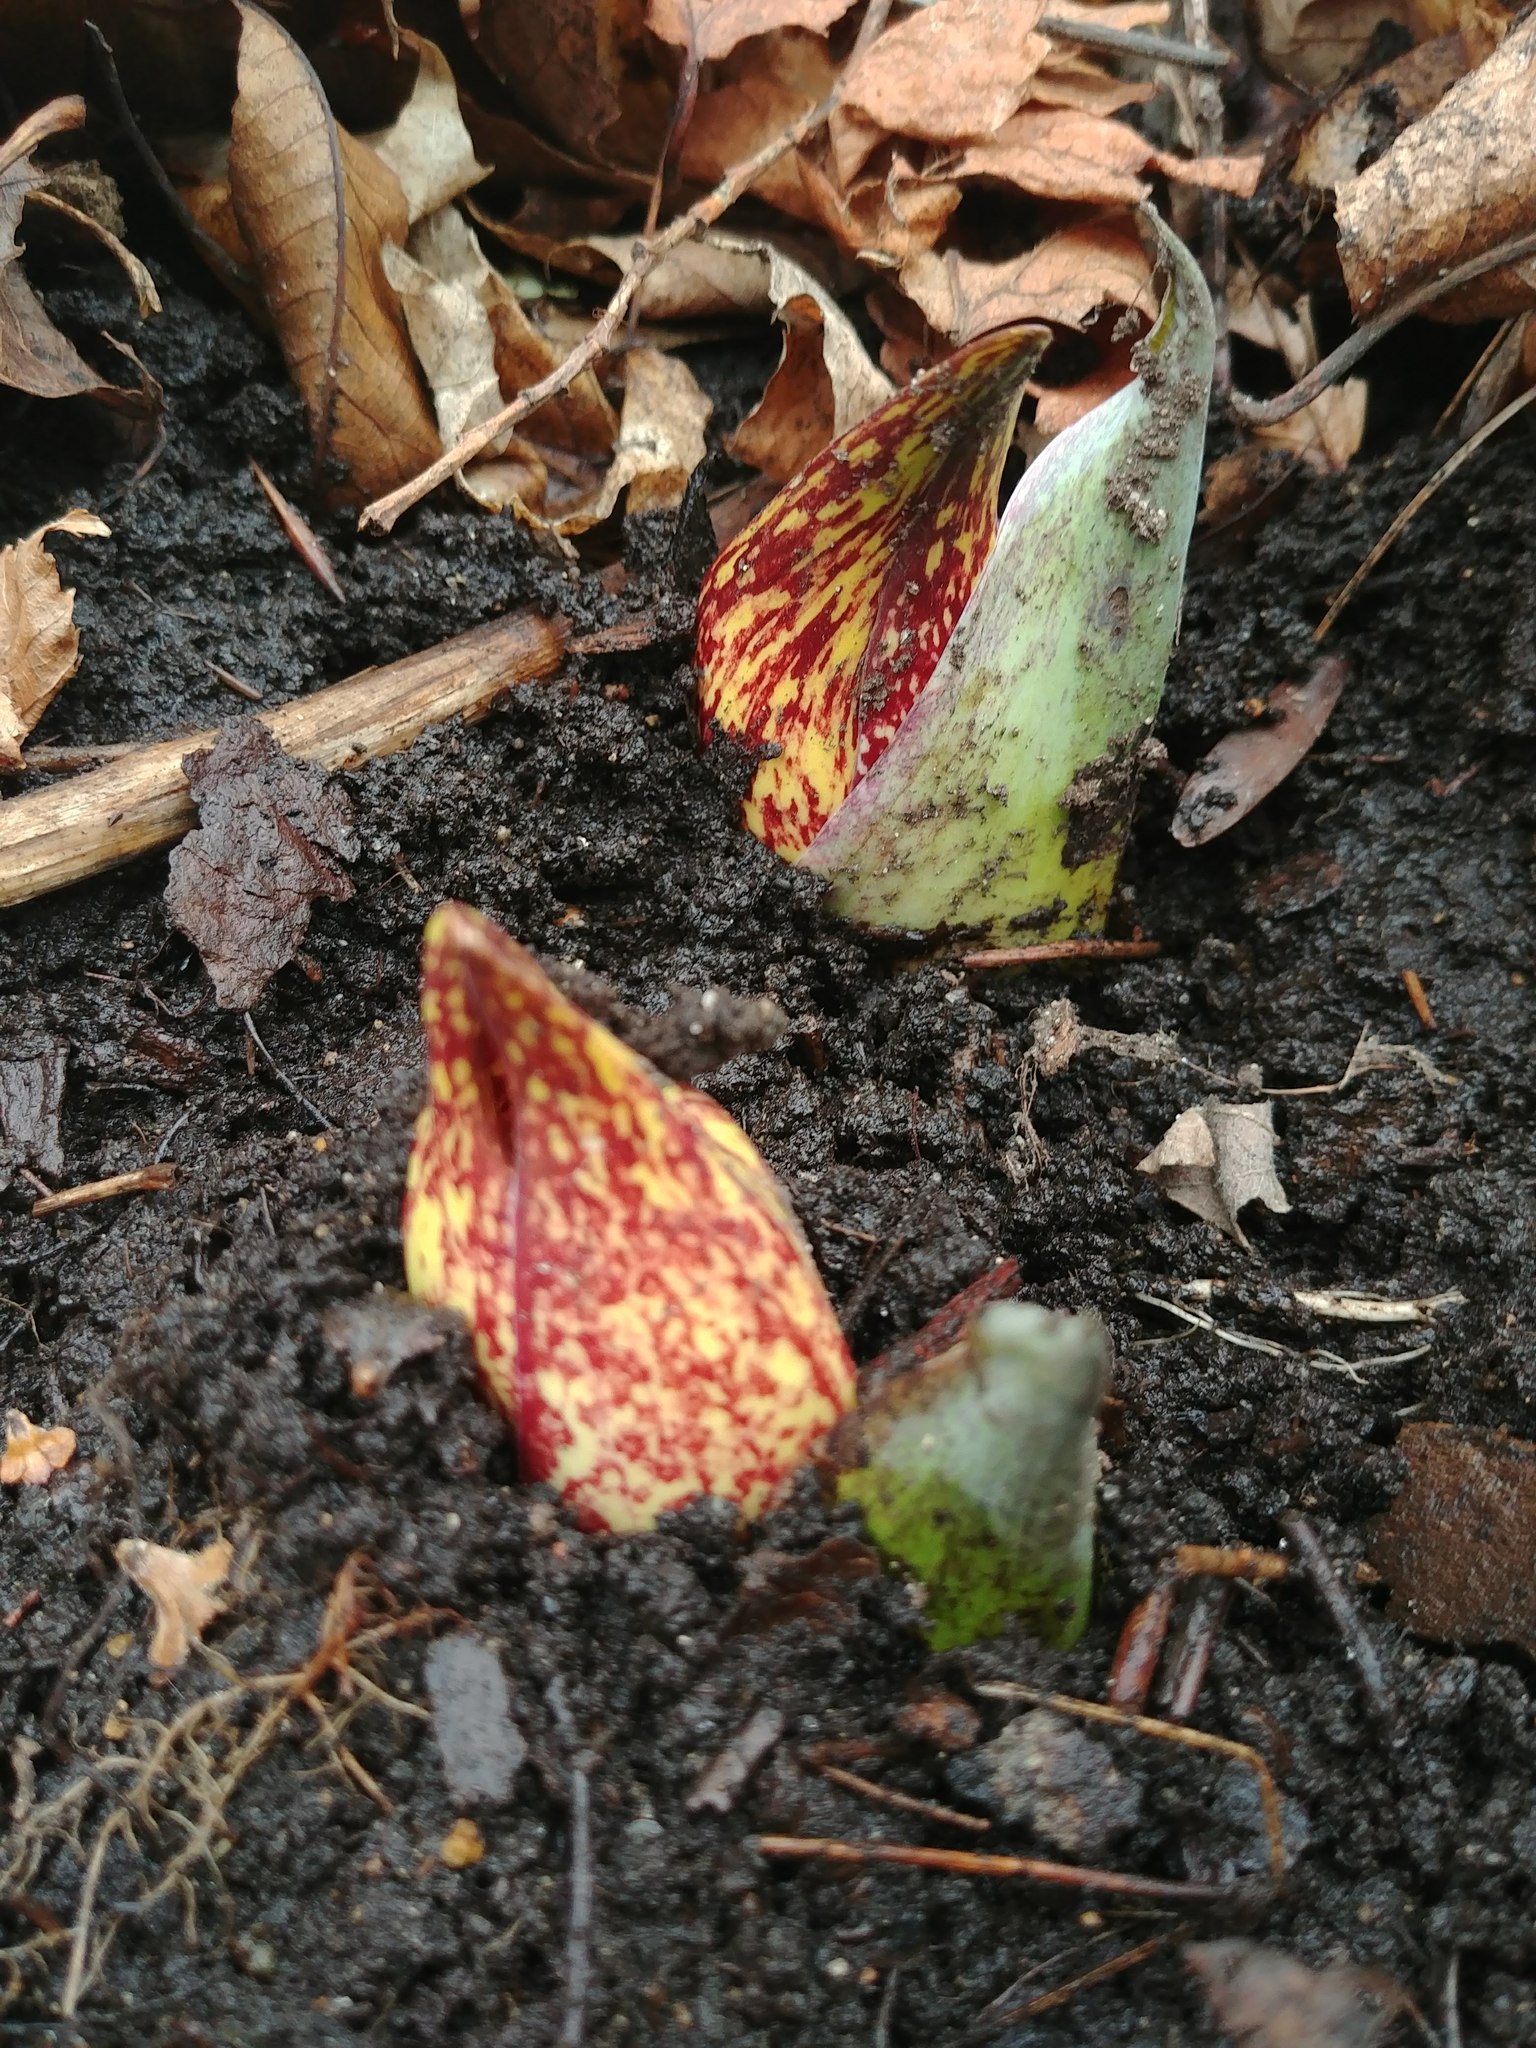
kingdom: Plantae
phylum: Tracheophyta
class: Liliopsida
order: Alismatales
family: Araceae
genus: Symplocarpus
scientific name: Symplocarpus foetidus
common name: Eastern skunk cabbage
